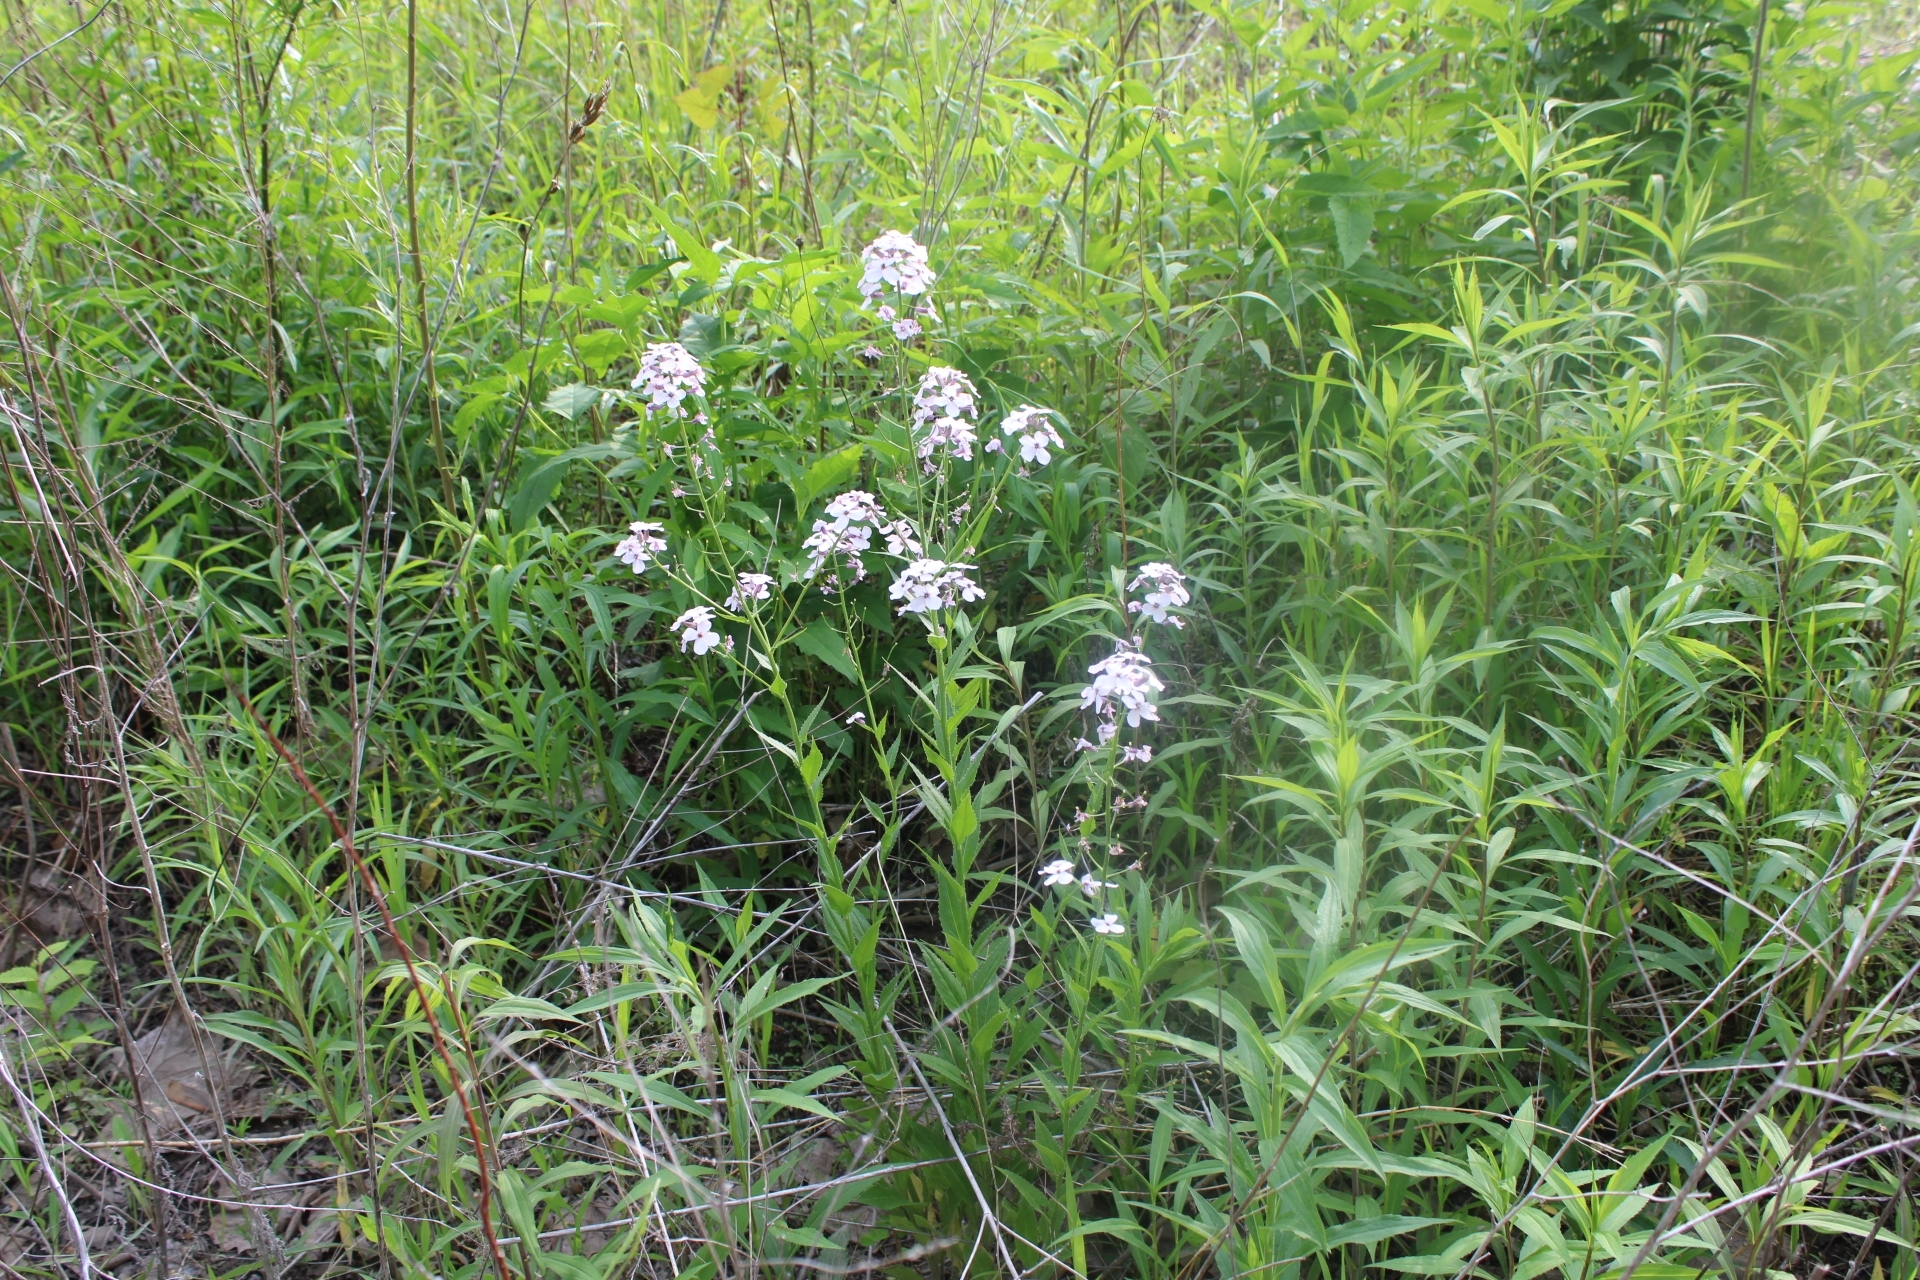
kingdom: Plantae
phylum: Tracheophyta
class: Magnoliopsida
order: Brassicales
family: Brassicaceae
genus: Hesperis
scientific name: Hesperis matronalis
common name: Dame's-violet
